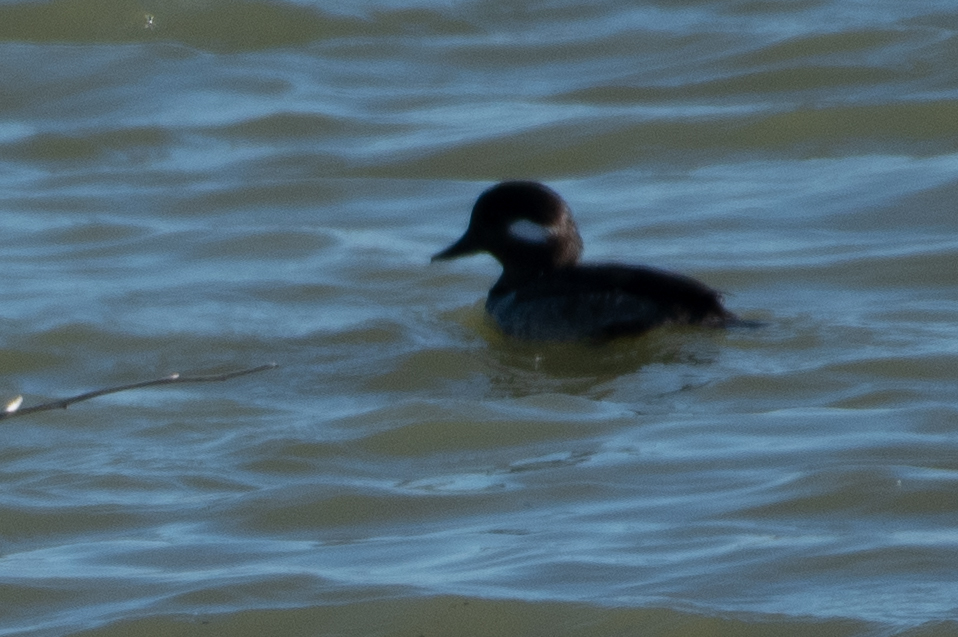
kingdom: Animalia
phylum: Chordata
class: Aves
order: Anseriformes
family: Anatidae
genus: Bucephala
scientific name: Bucephala albeola
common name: Bufflehead
